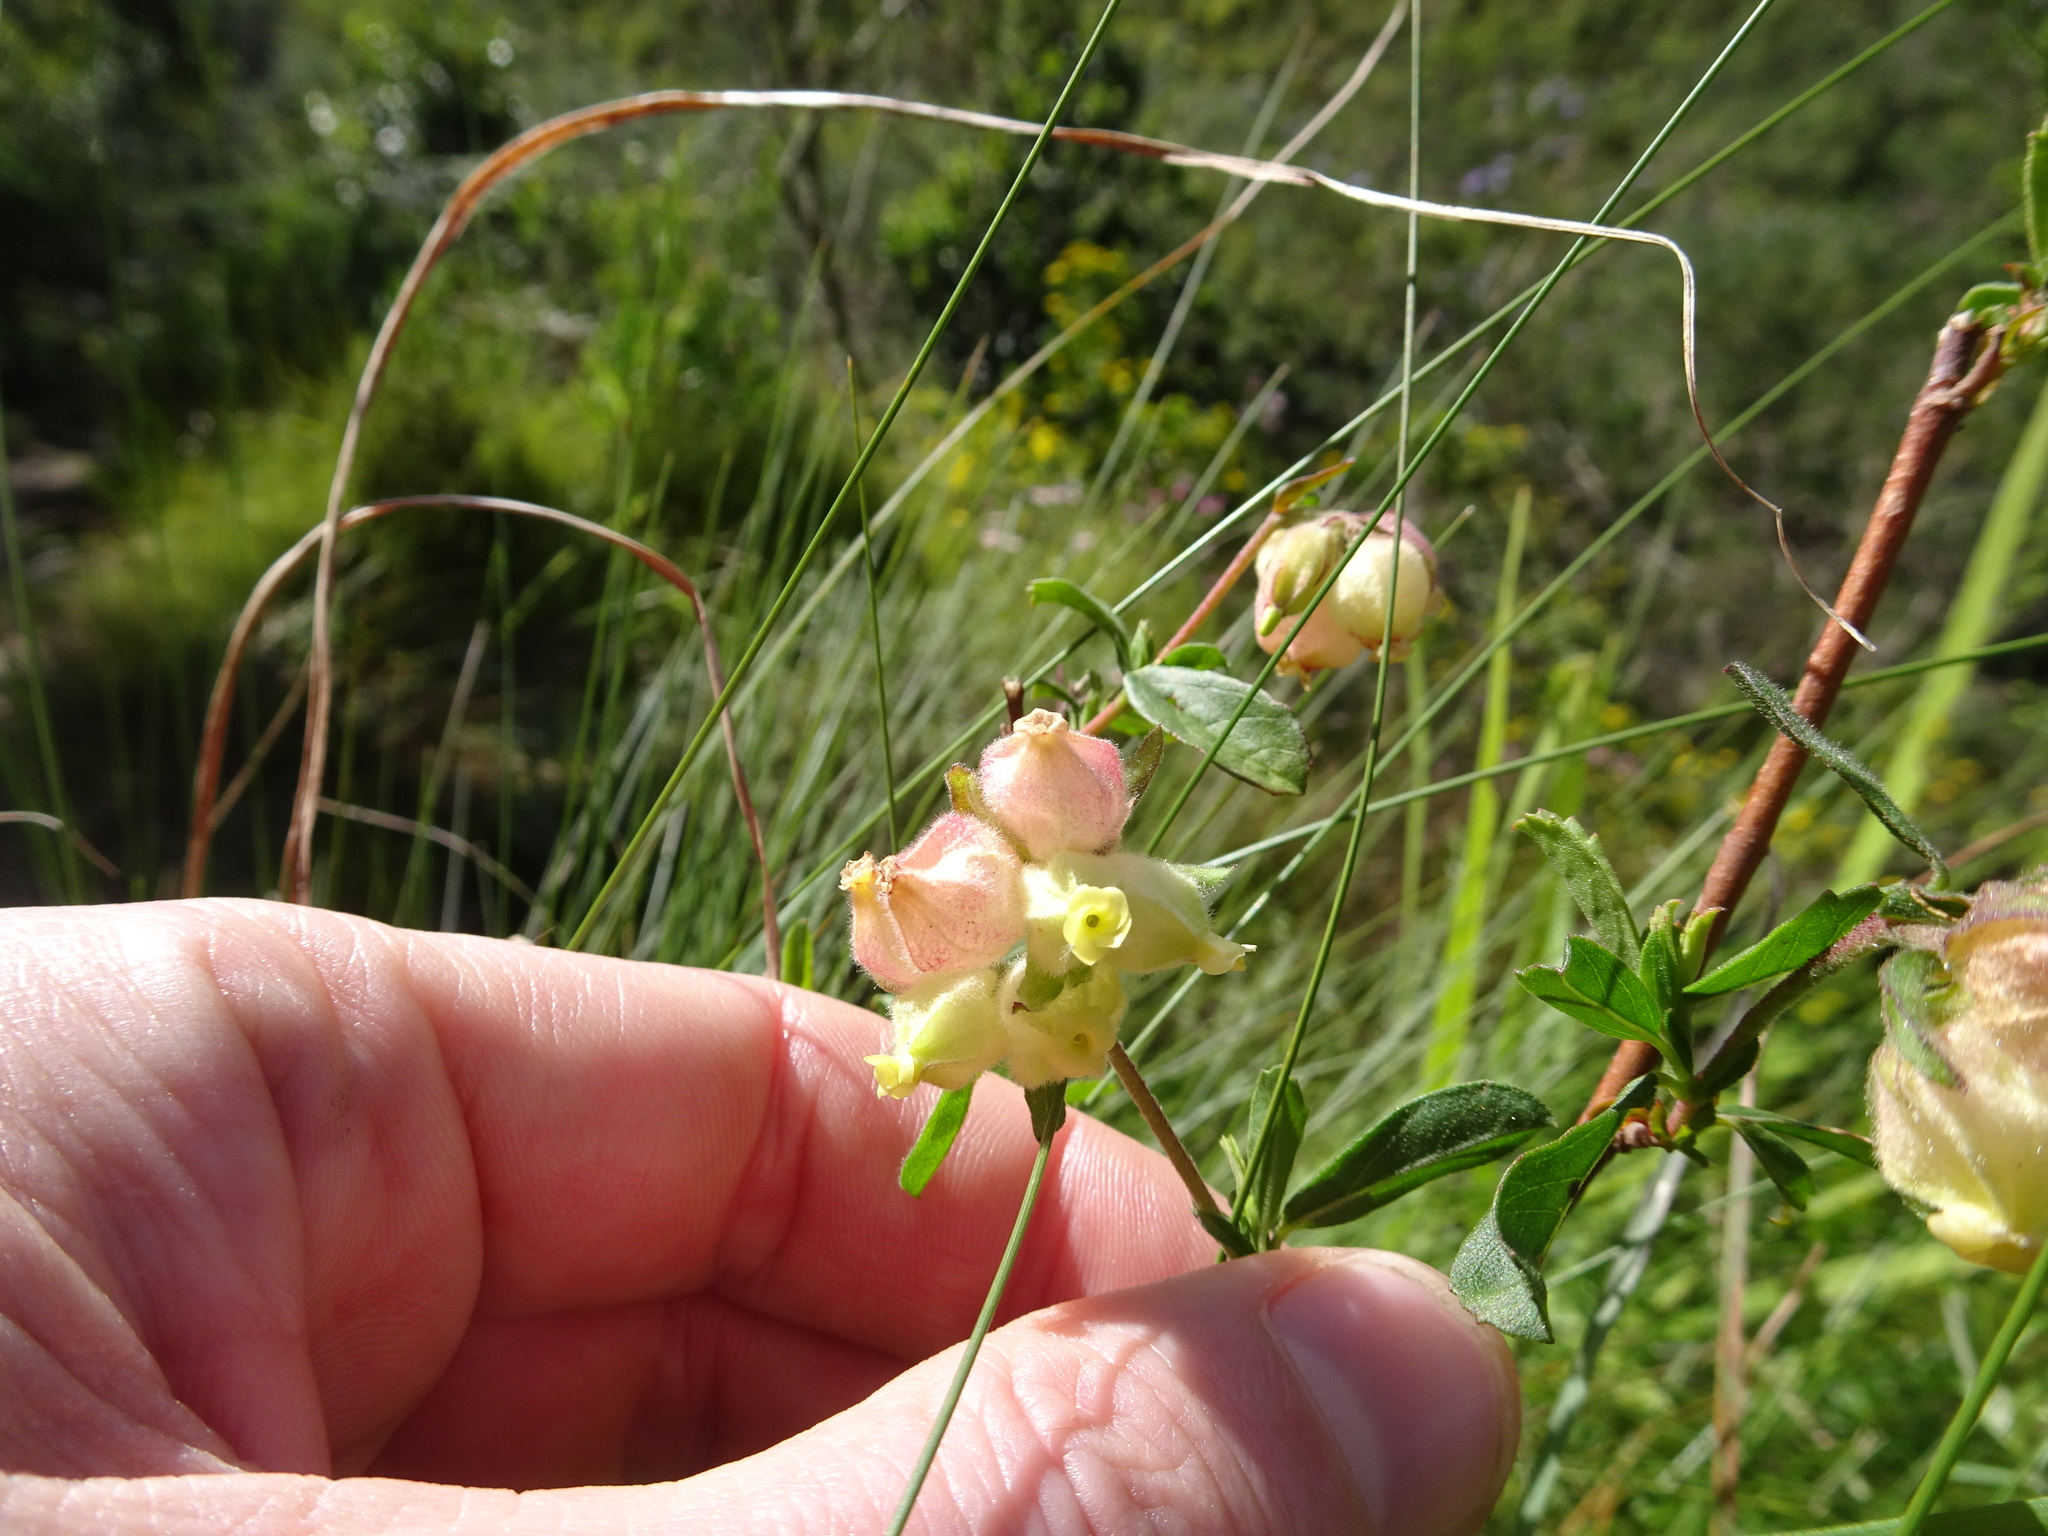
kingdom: Plantae
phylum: Tracheophyta
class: Magnoliopsida
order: Malvales
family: Malvaceae
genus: Hermannia
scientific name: Hermannia hyssopifolia
